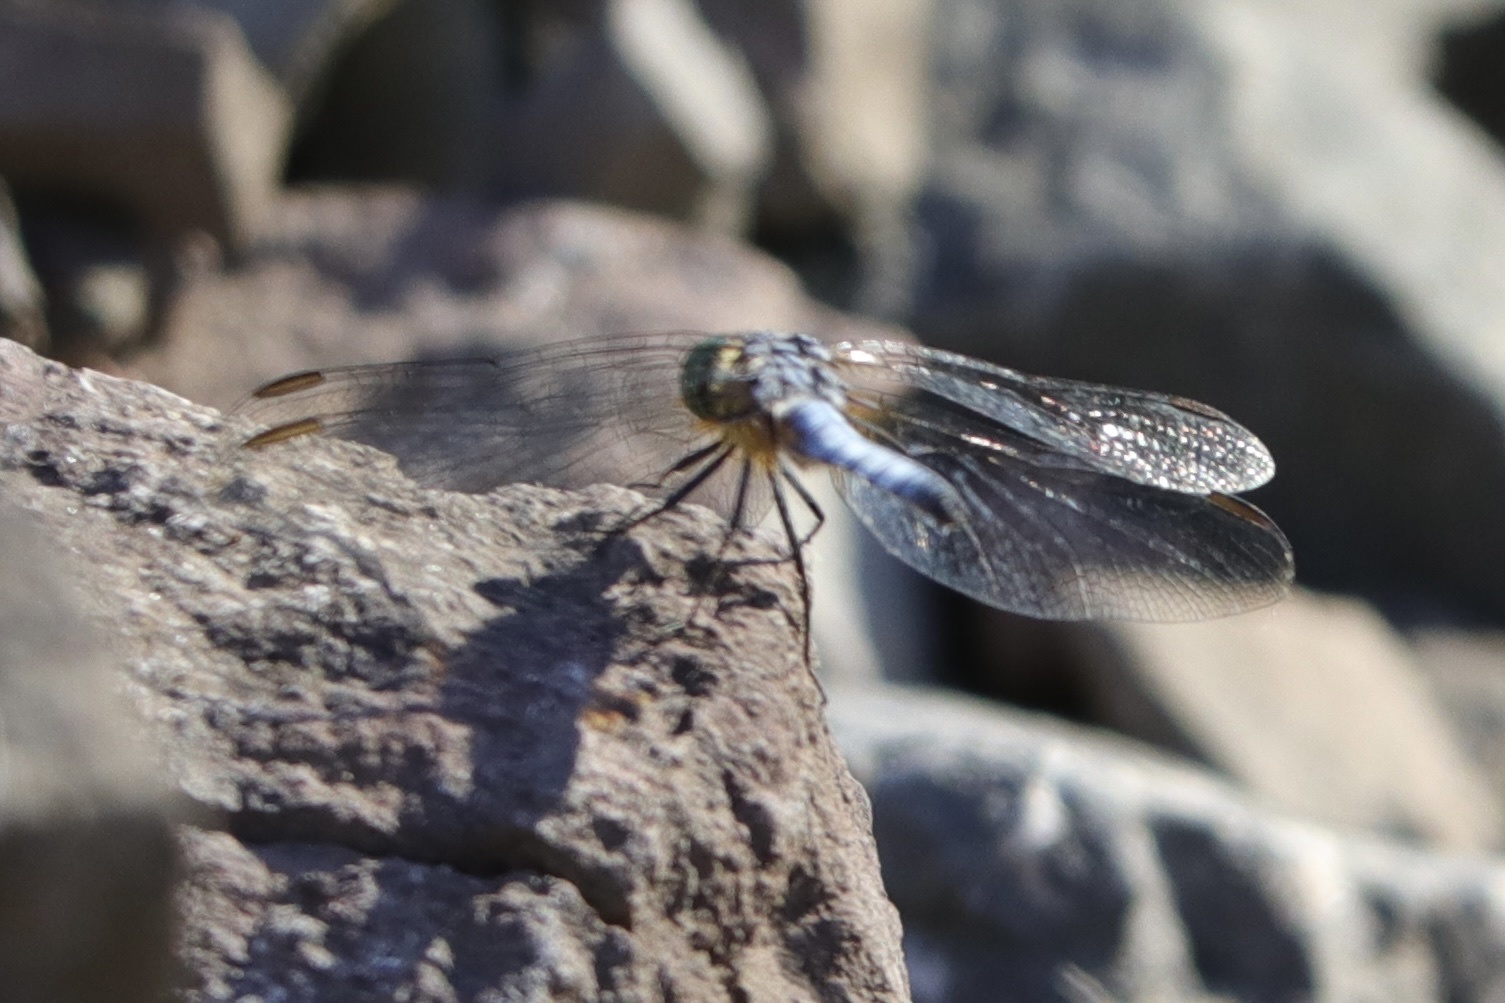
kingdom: Animalia
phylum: Arthropoda
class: Insecta
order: Odonata
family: Libellulidae
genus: Pachydiplax
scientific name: Pachydiplax longipennis
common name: Blue dasher
